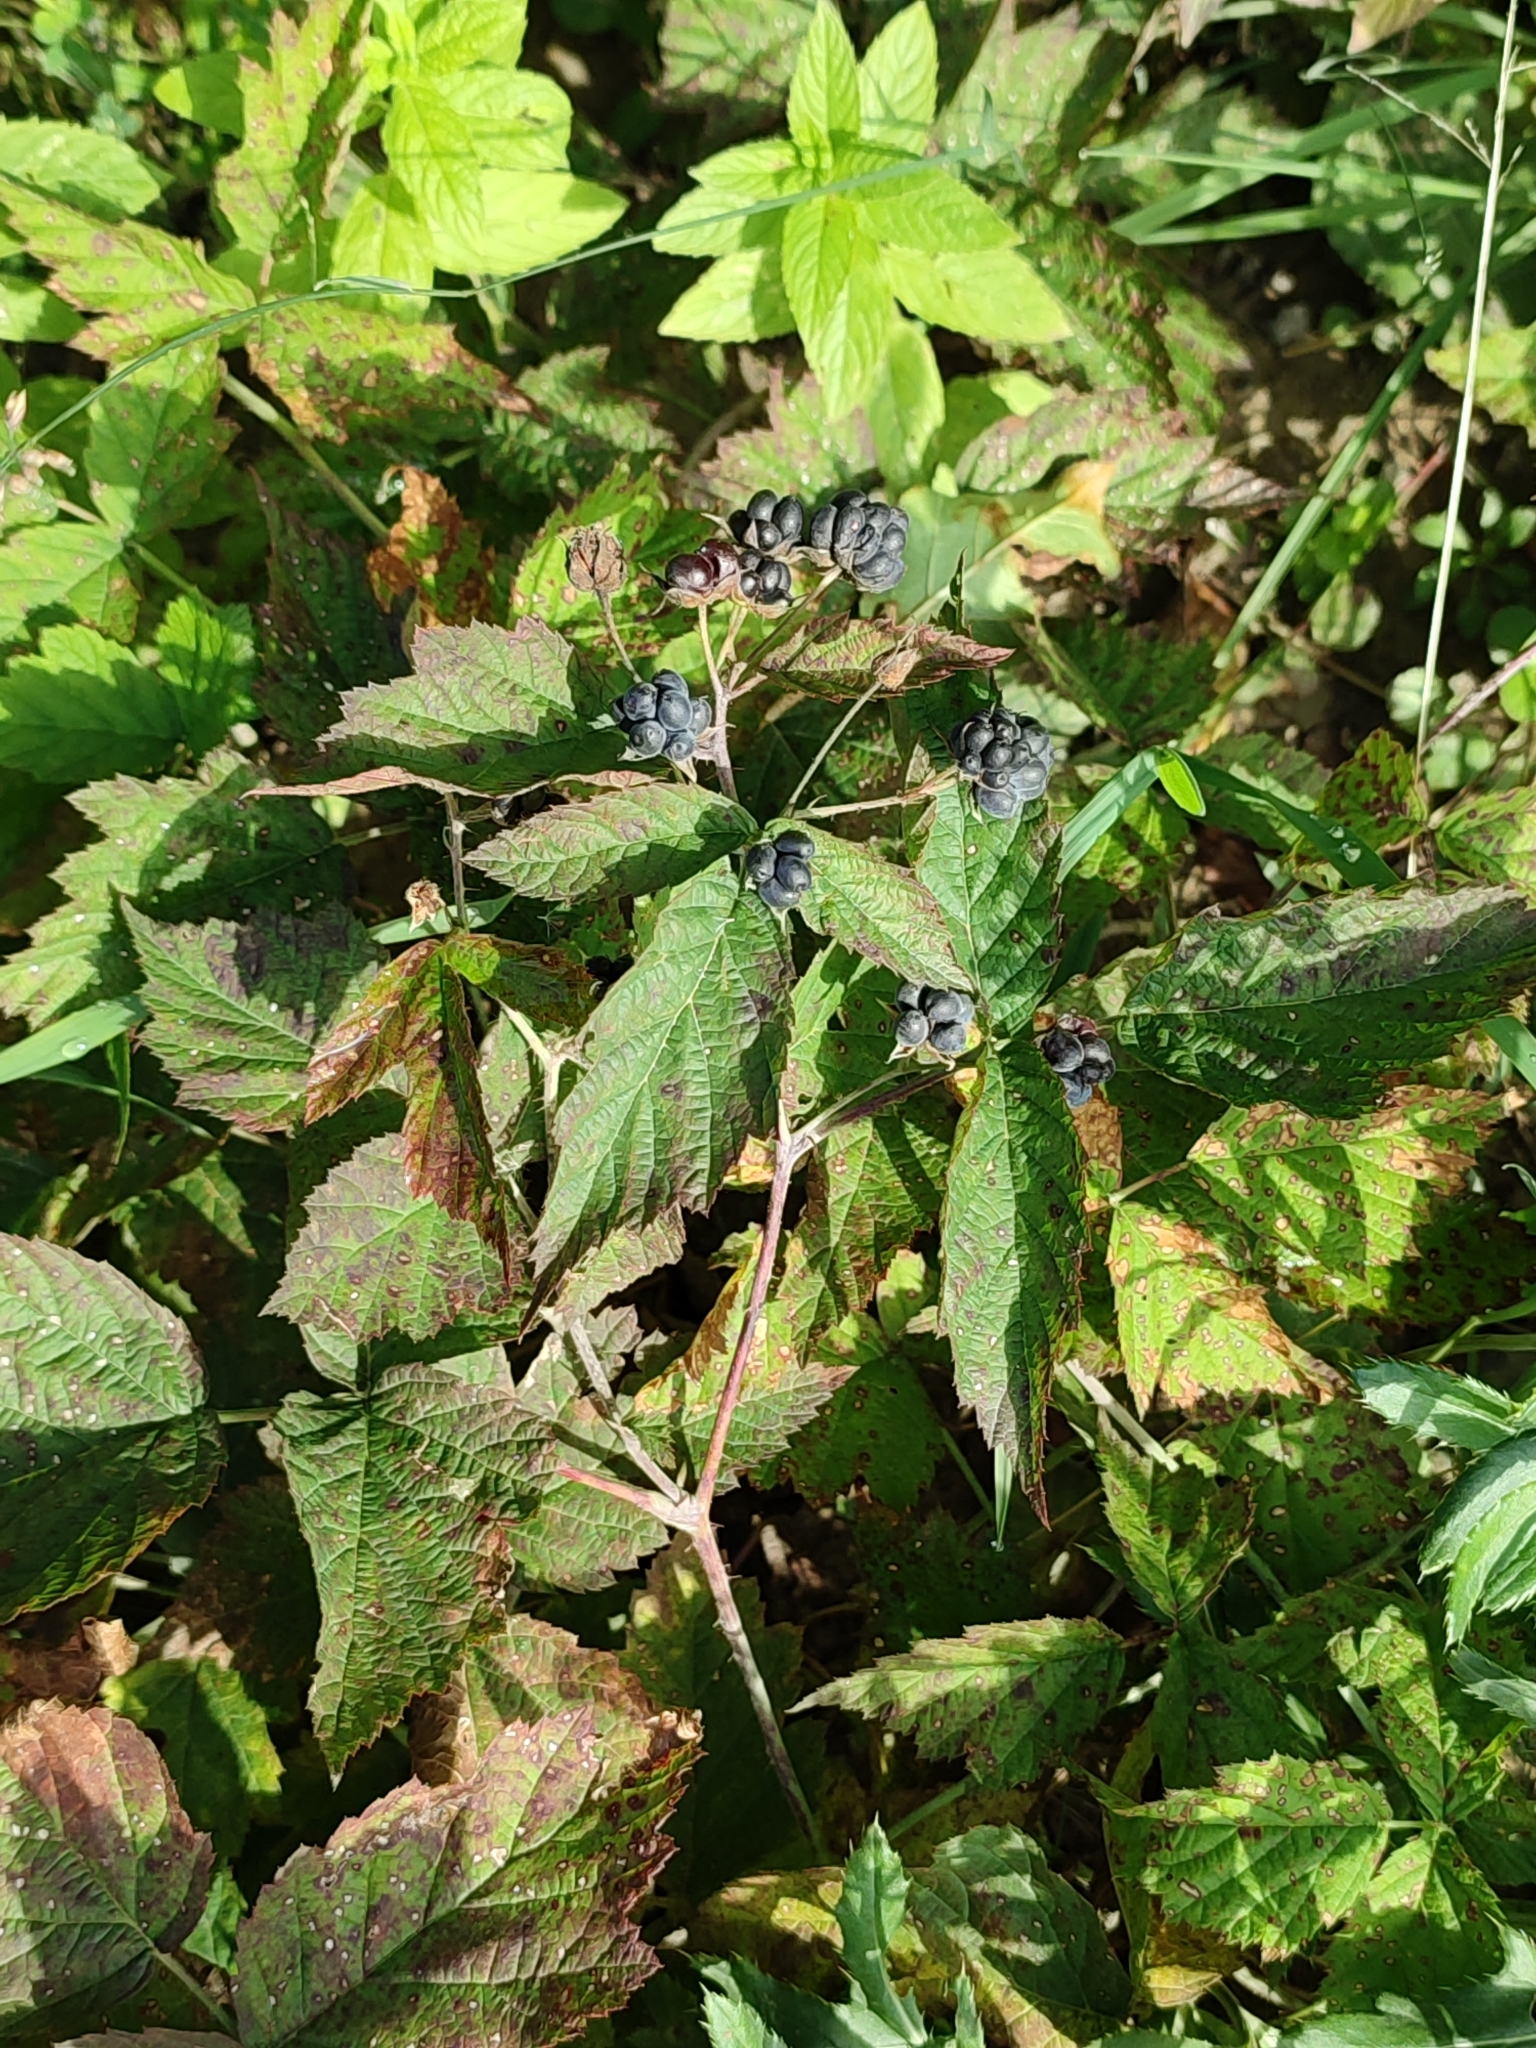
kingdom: Plantae
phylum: Tracheophyta
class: Magnoliopsida
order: Rosales
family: Rosaceae
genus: Rubus
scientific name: Rubus caesius
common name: Dewberry
